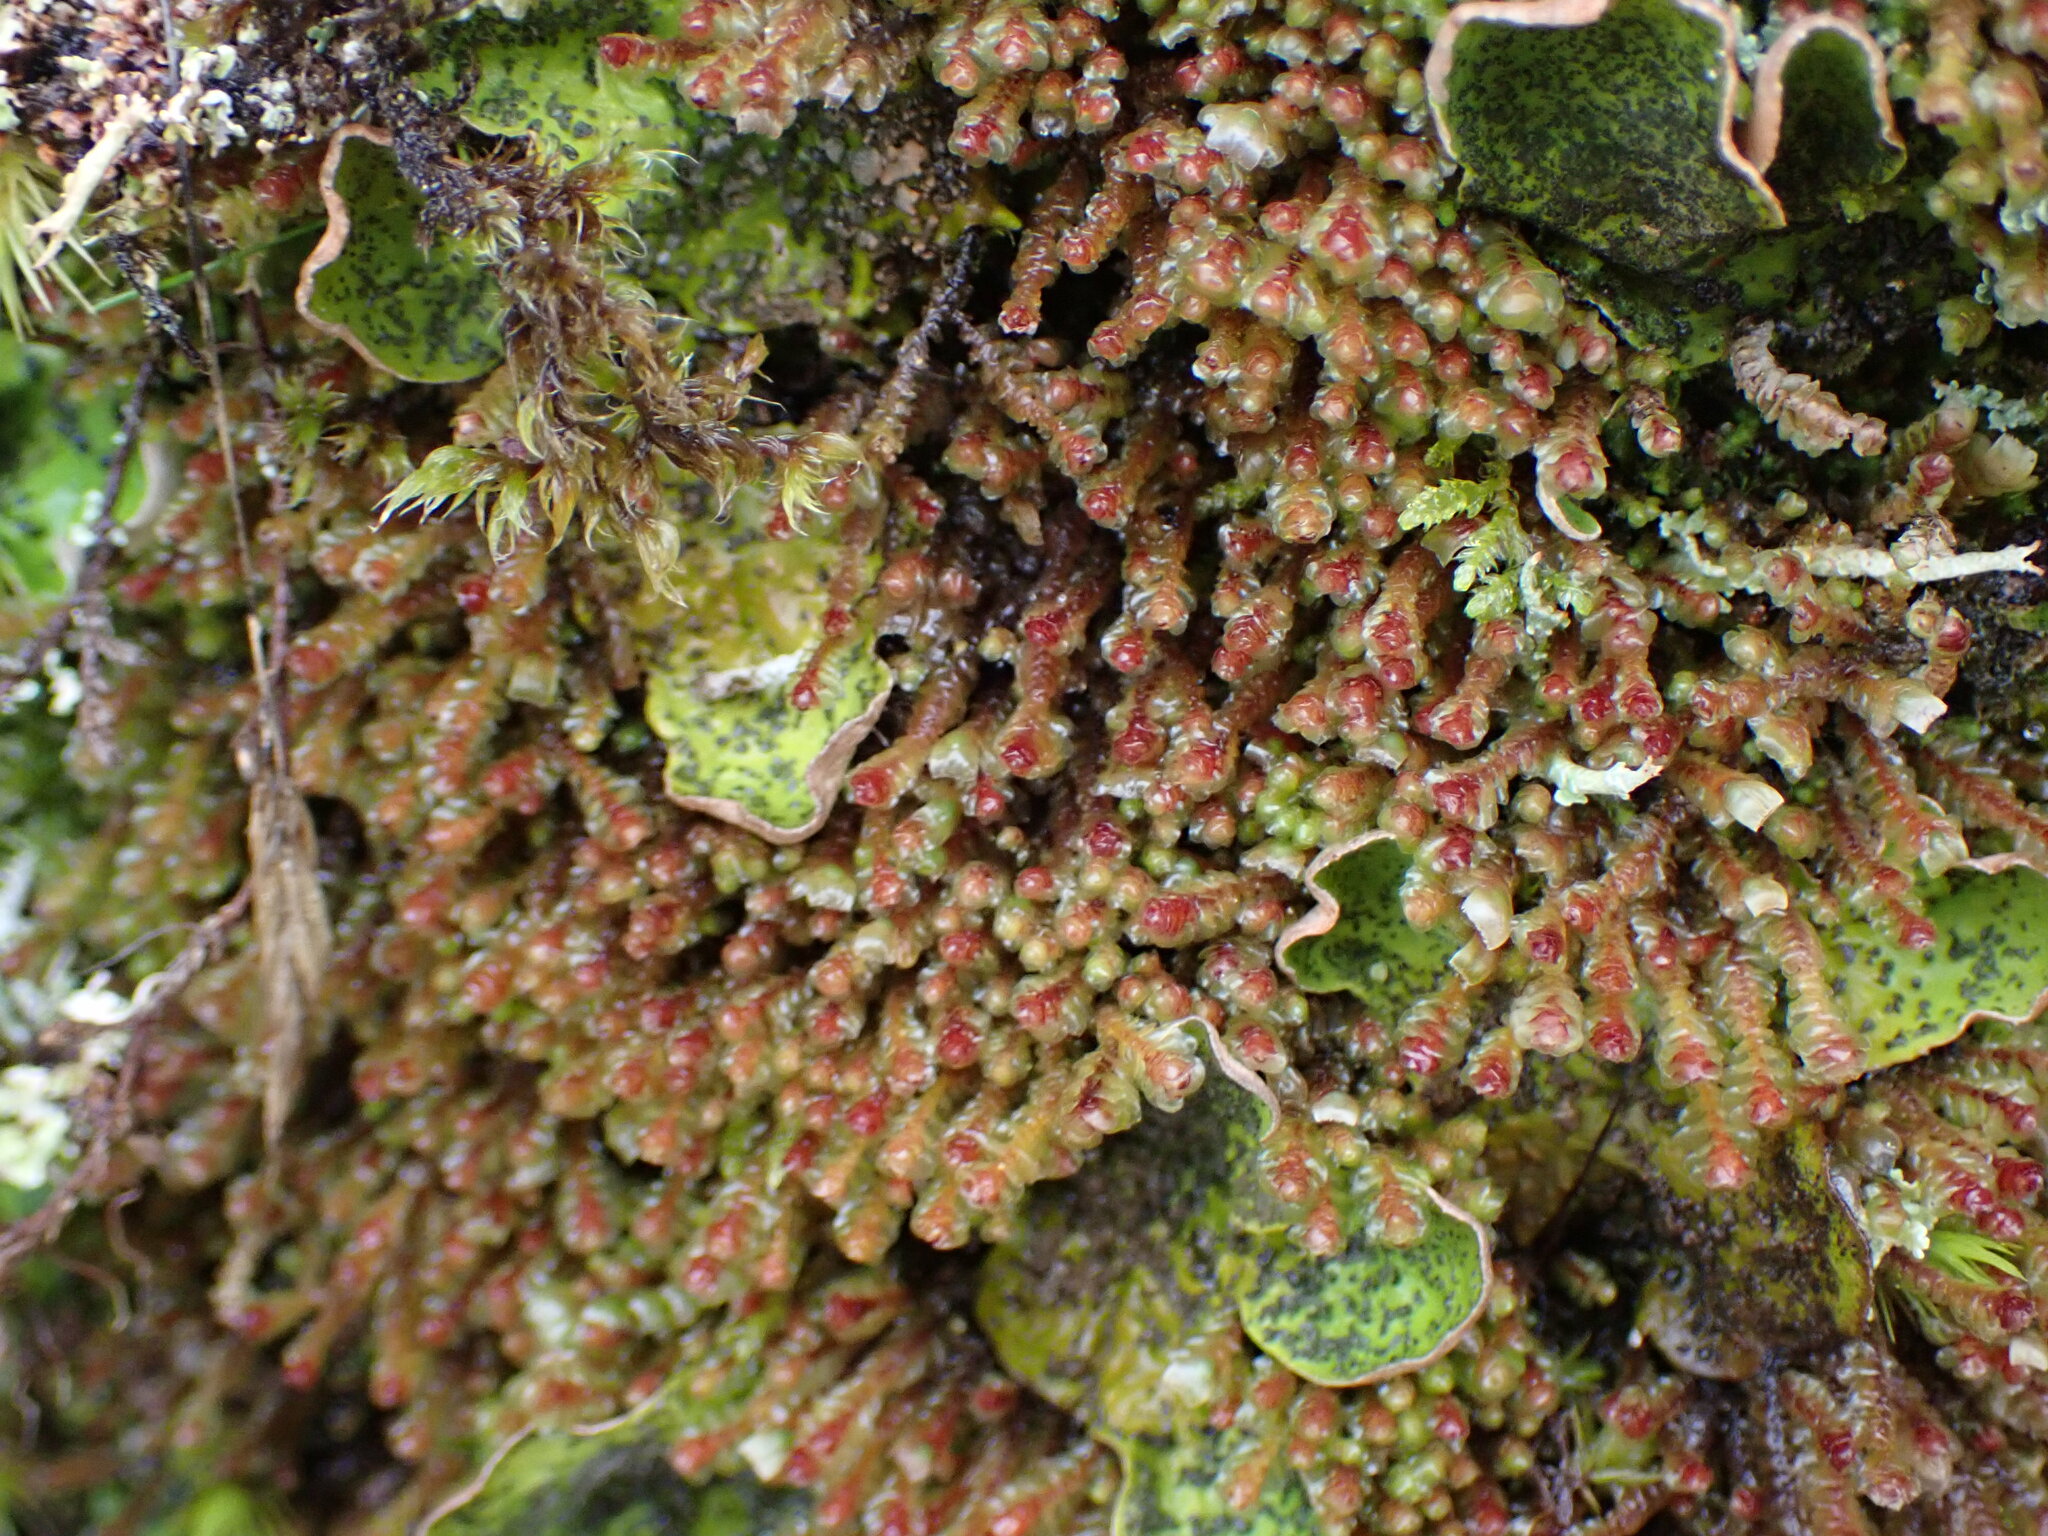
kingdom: Plantae
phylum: Marchantiophyta
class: Jungermanniopsida
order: Jungermanniales
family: Scapaniaceae
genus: Scapania
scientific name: Scapania americana
